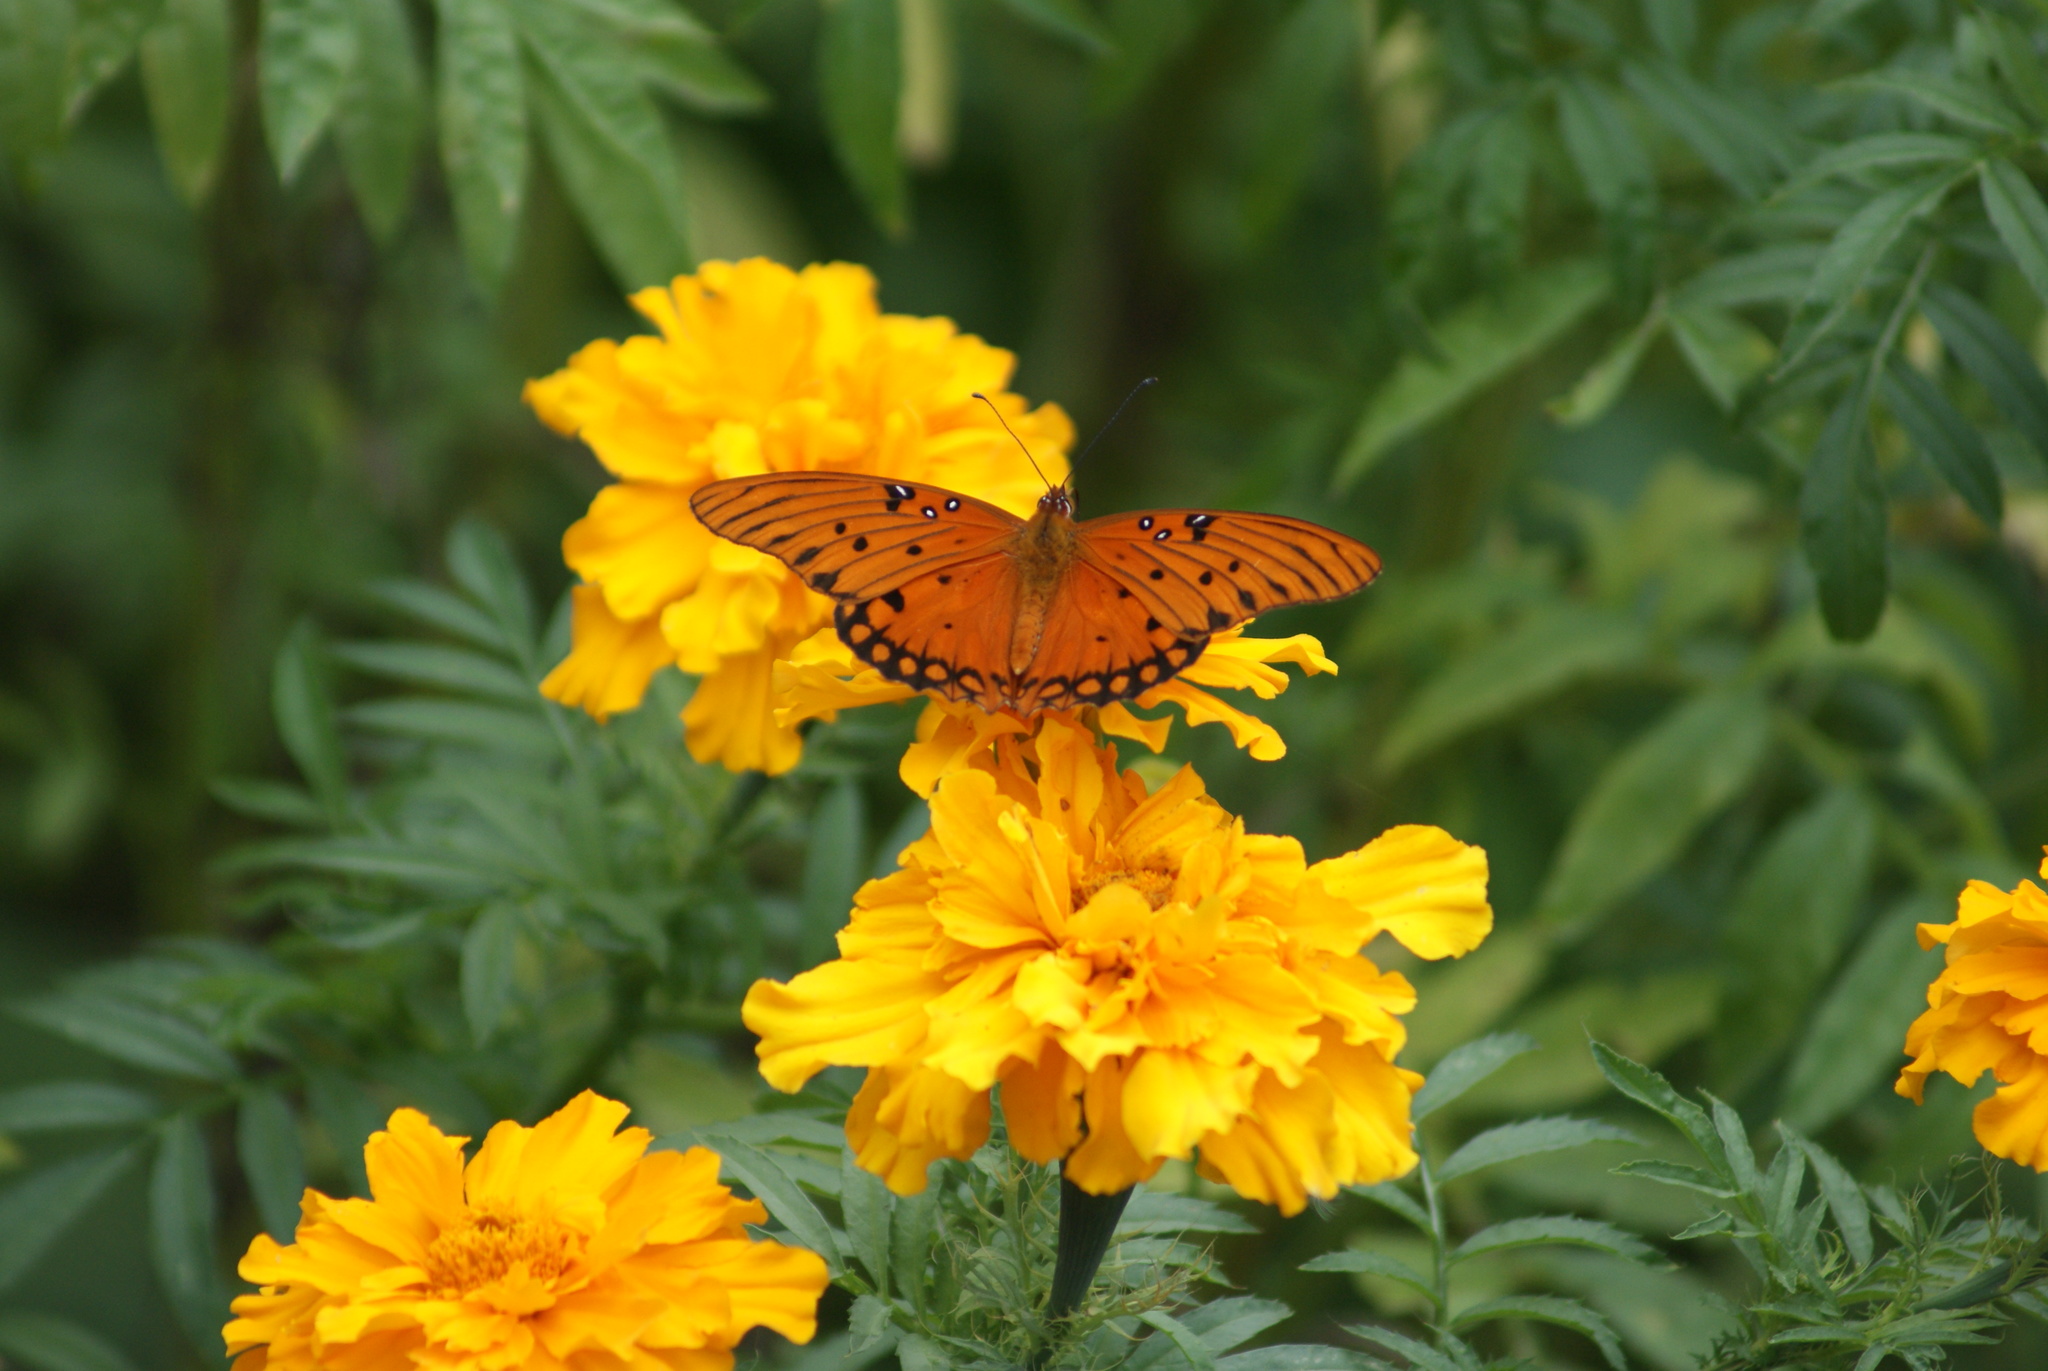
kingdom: Animalia
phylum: Arthropoda
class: Insecta
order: Lepidoptera
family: Nymphalidae
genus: Dione
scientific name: Dione vanillae
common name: Gulf fritillary
